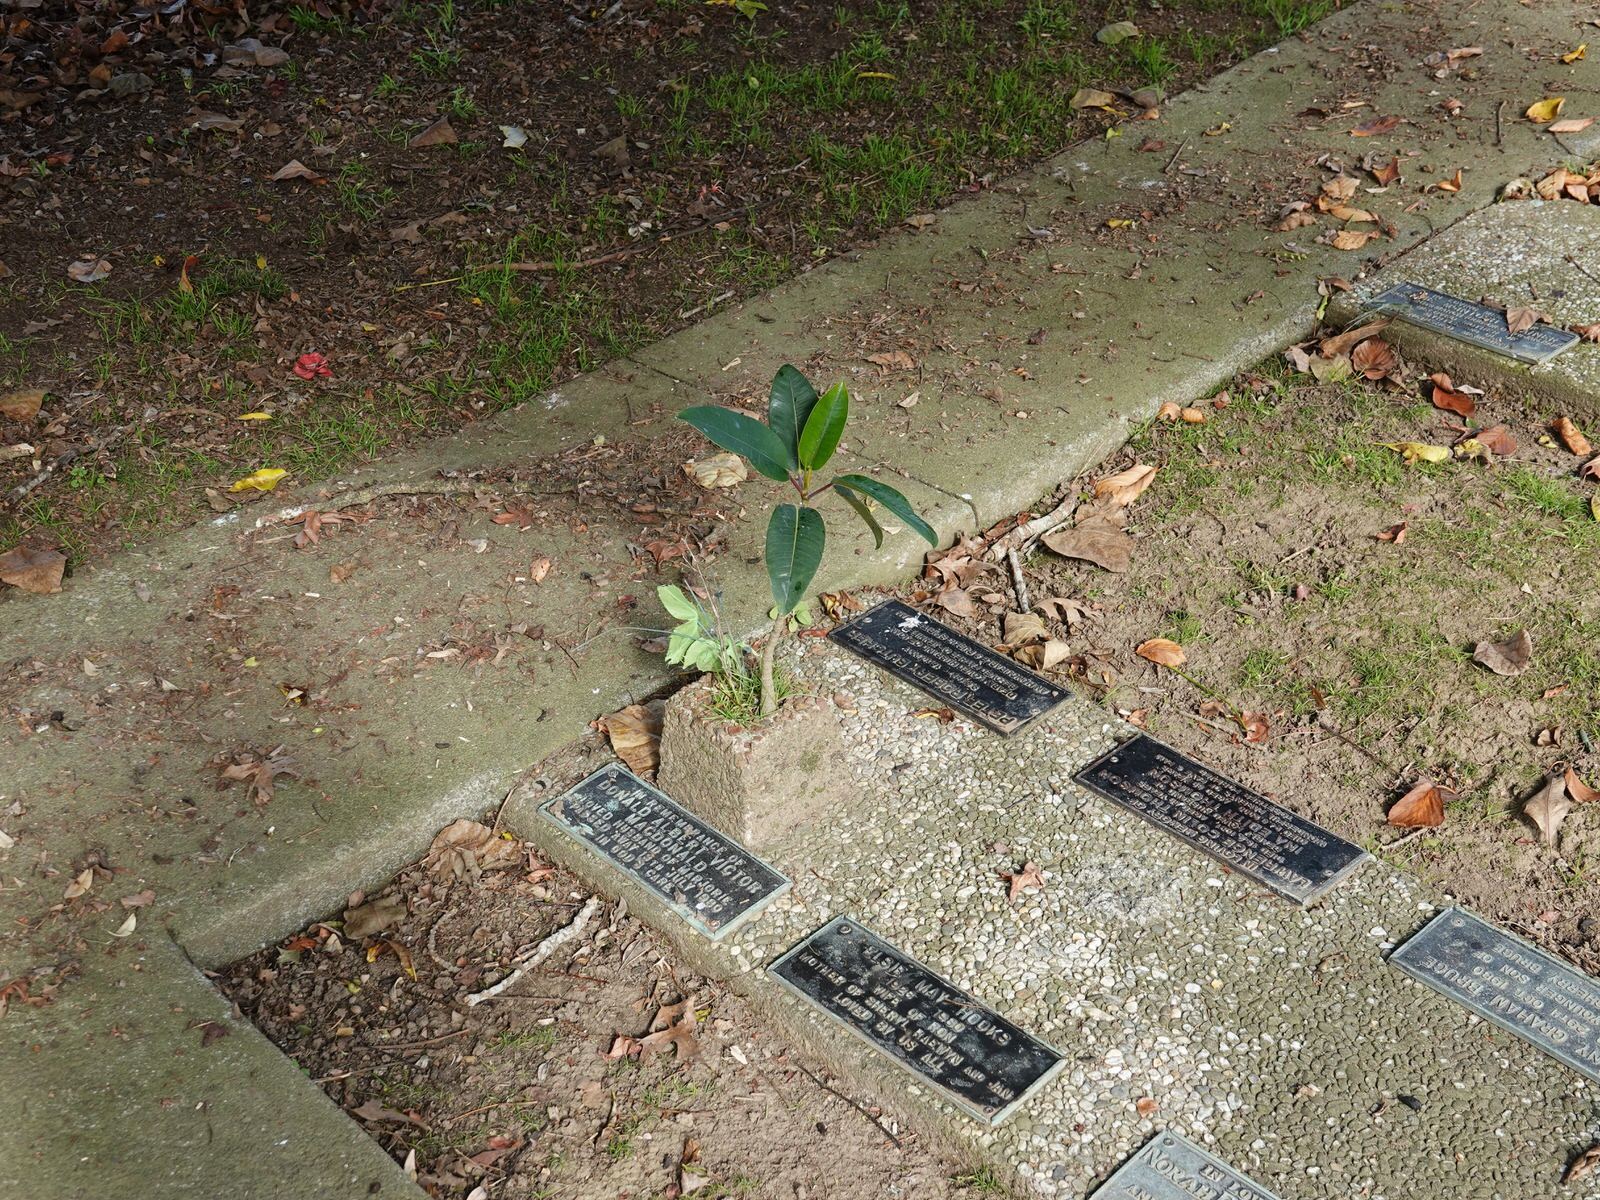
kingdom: Plantae
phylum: Tracheophyta
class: Magnoliopsida
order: Rosales
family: Moraceae
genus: Ficus
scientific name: Ficus macrophylla
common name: Moreton bay fig
